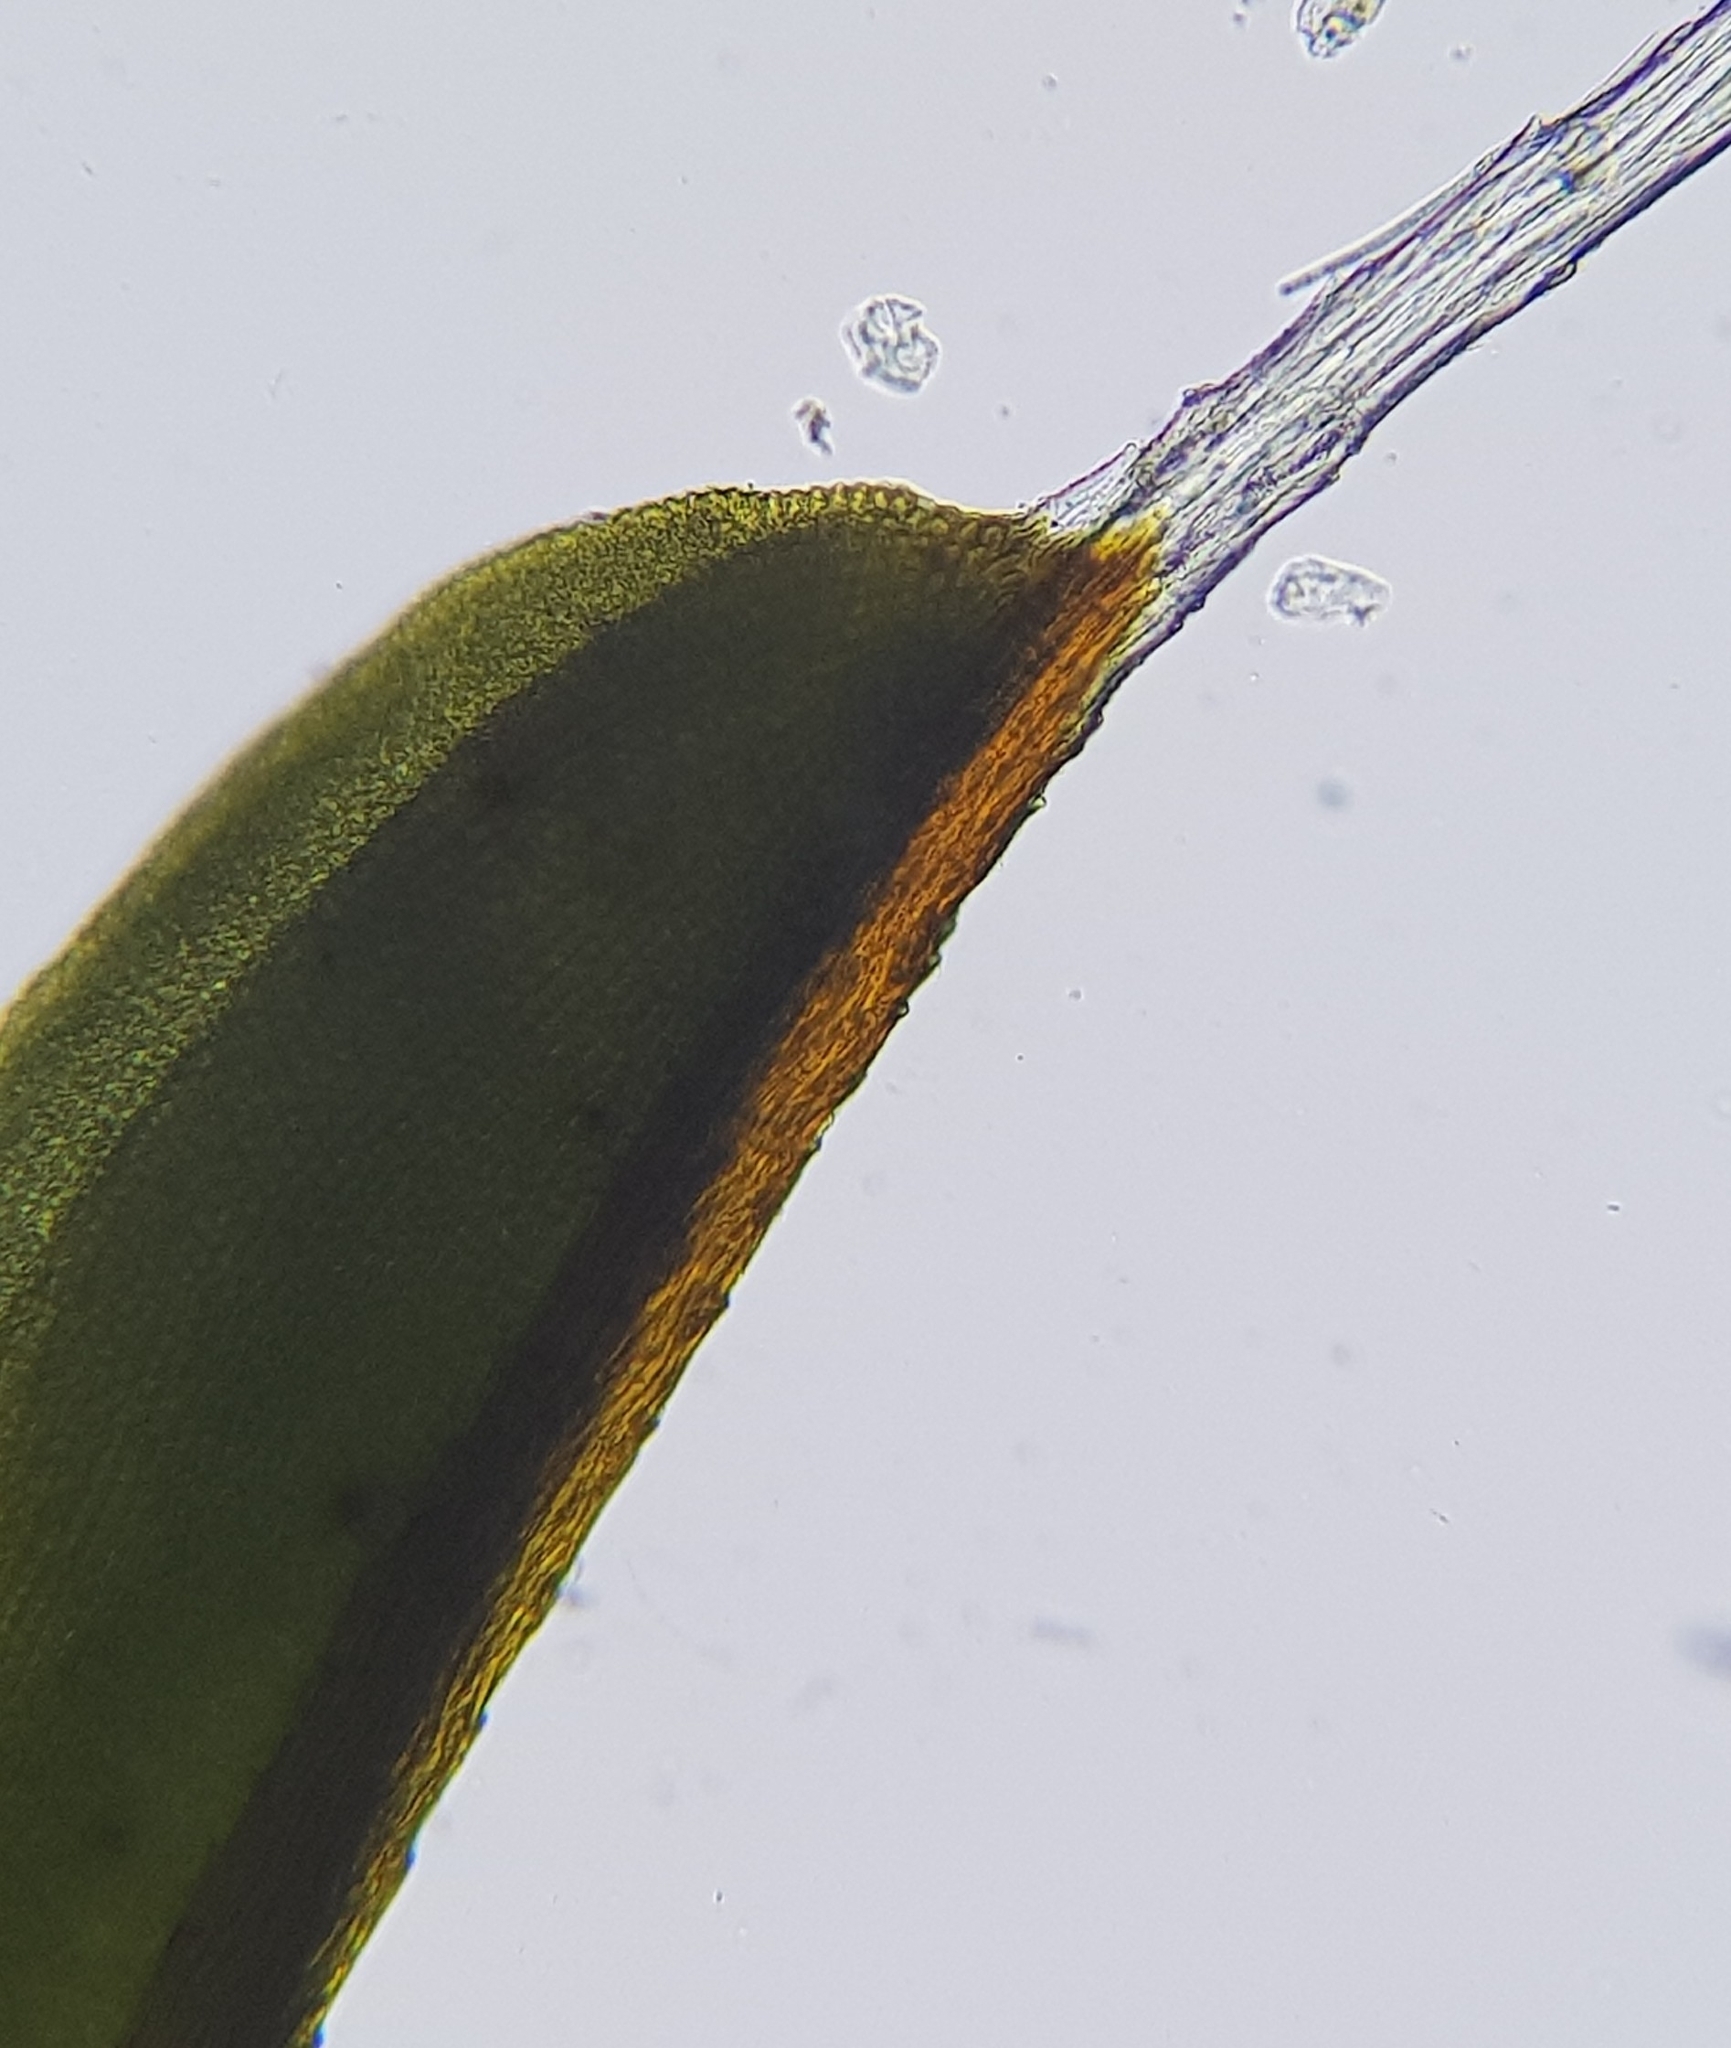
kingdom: Plantae
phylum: Bryophyta
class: Bryopsida
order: Pottiales
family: Pottiaceae
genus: Syntrichia
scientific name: Syntrichia montana
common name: Intermediate screw-moss
